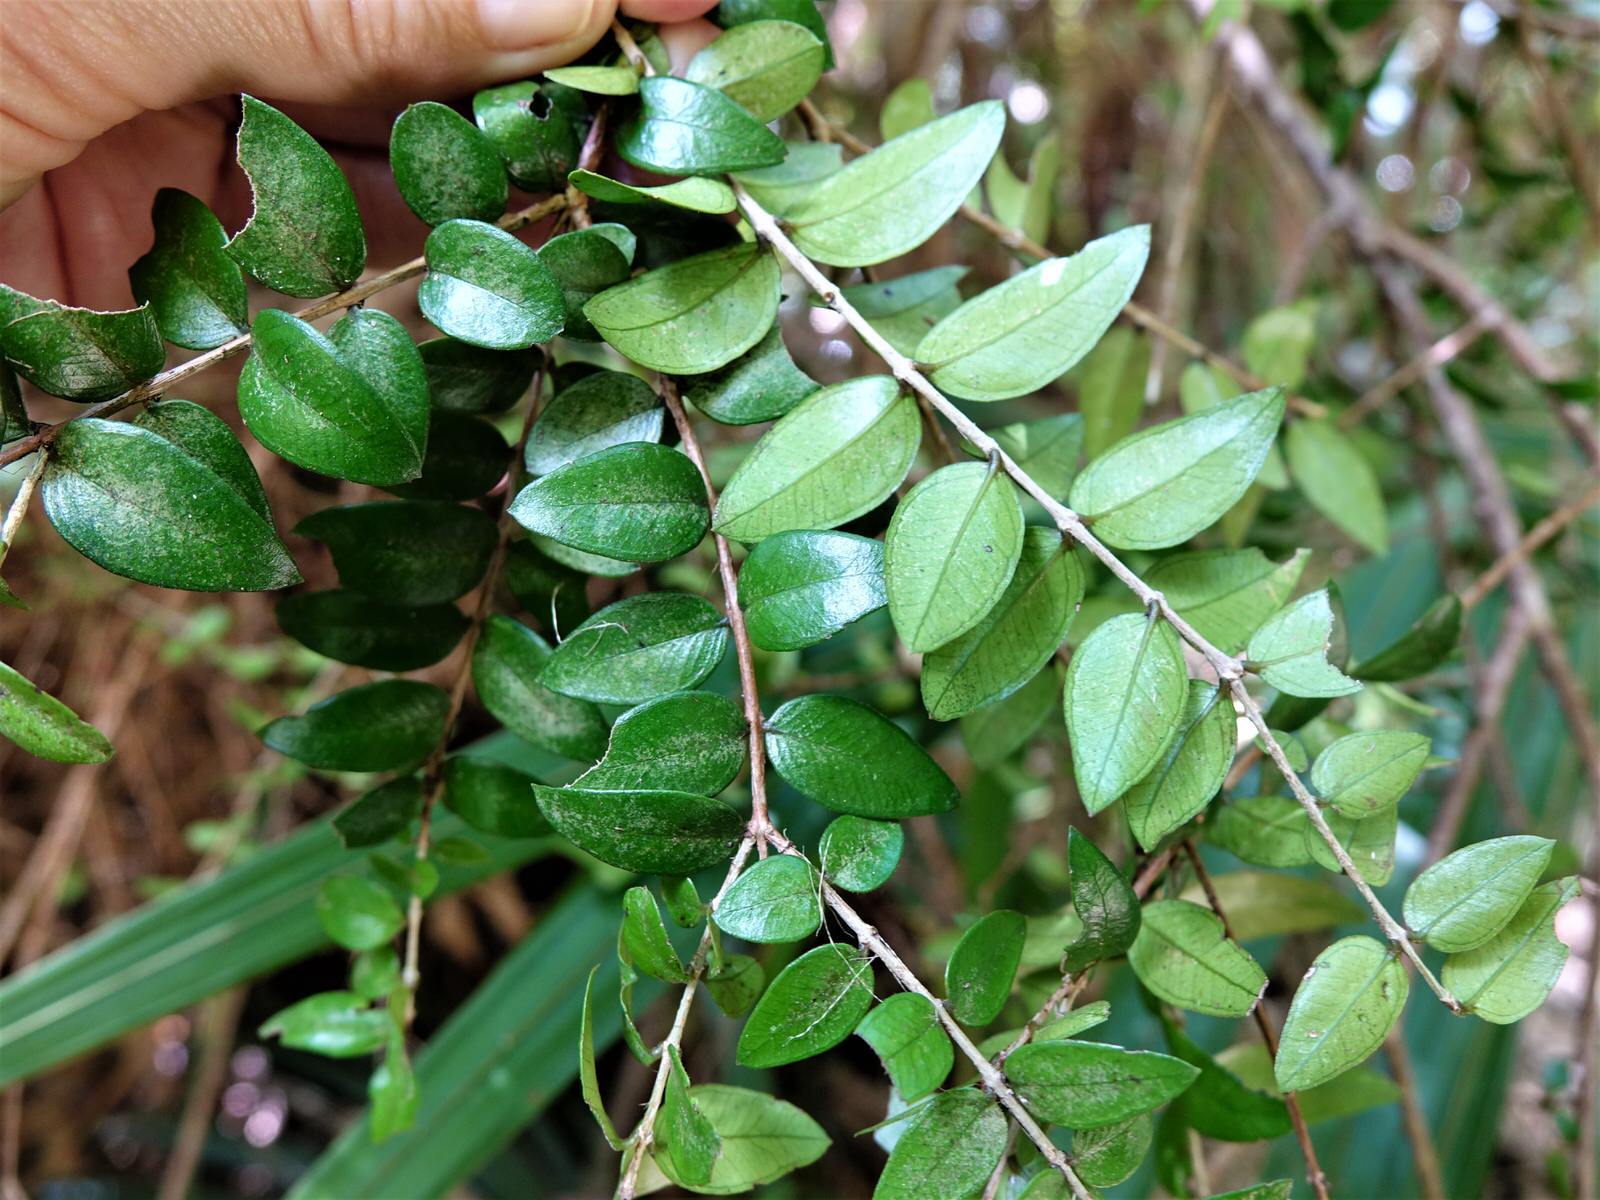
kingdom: Plantae
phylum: Tracheophyta
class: Magnoliopsida
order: Myrtales
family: Myrtaceae
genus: Metrosideros
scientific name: Metrosideros diffusa
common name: Small ratavine
